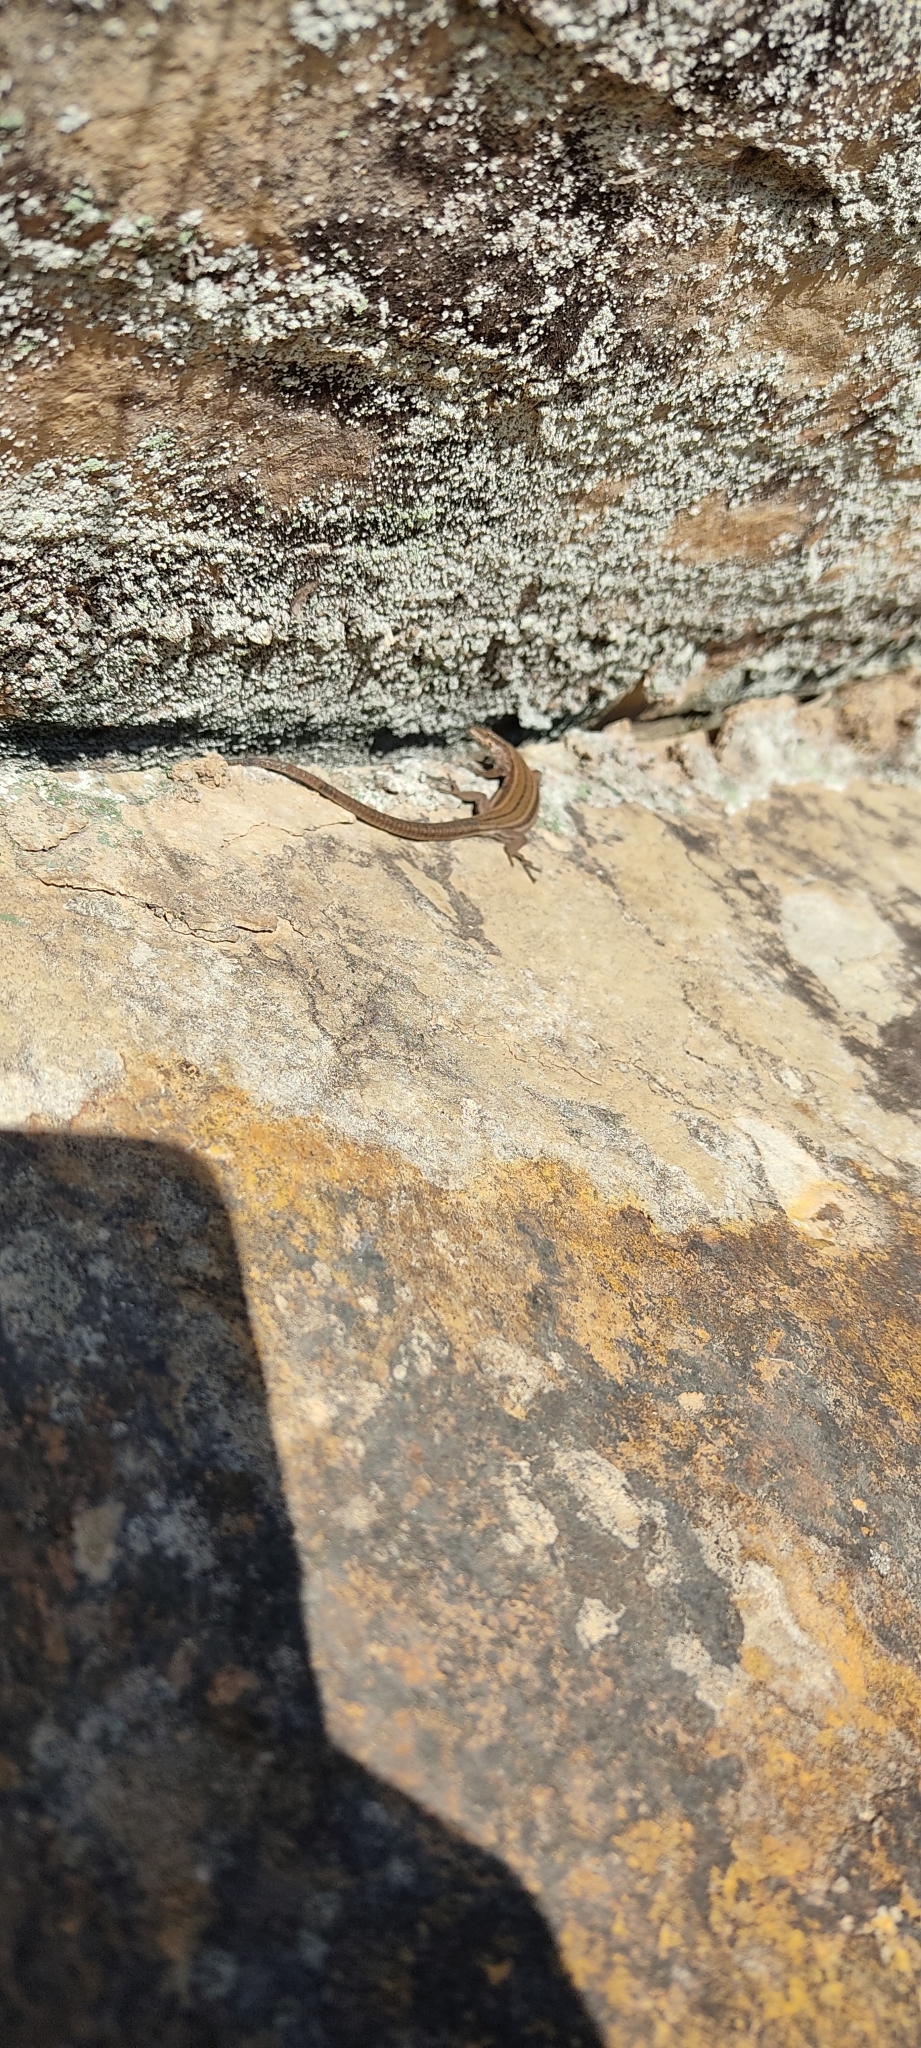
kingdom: Animalia
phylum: Chordata
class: Squamata
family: Lacertidae
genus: Podarcis
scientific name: Podarcis liolepis
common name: Catalonian wall lizard
